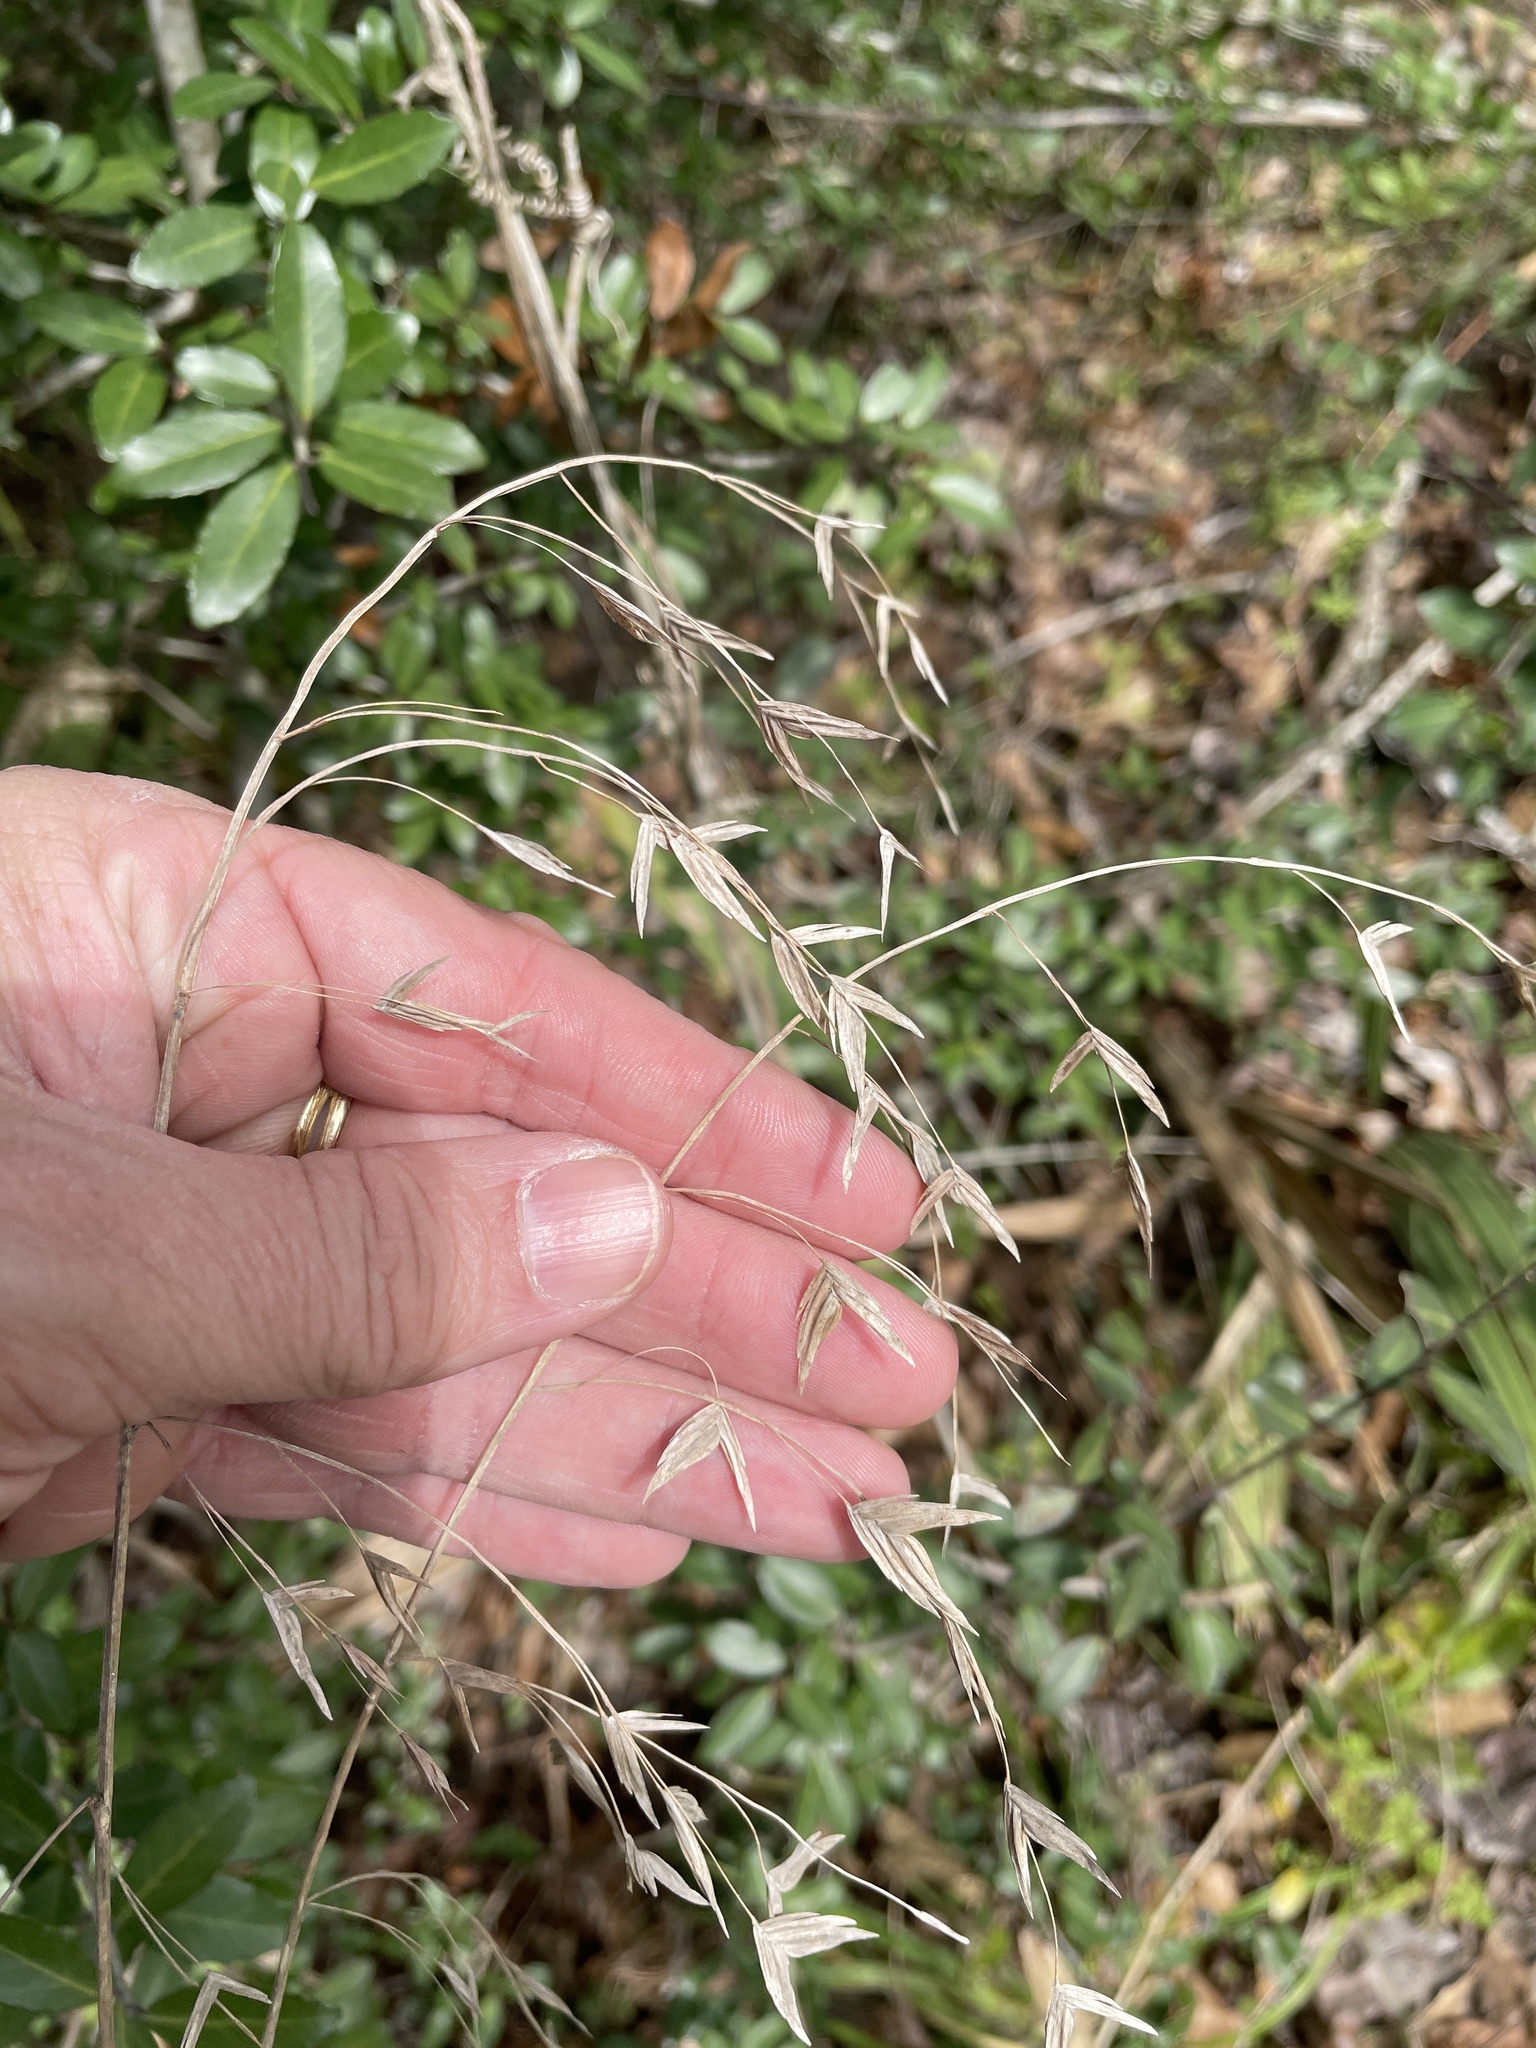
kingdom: Plantae
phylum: Tracheophyta
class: Liliopsida
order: Poales
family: Poaceae
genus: Chasmanthium
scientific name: Chasmanthium latifolium
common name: Broad-leaved chasmanthium
